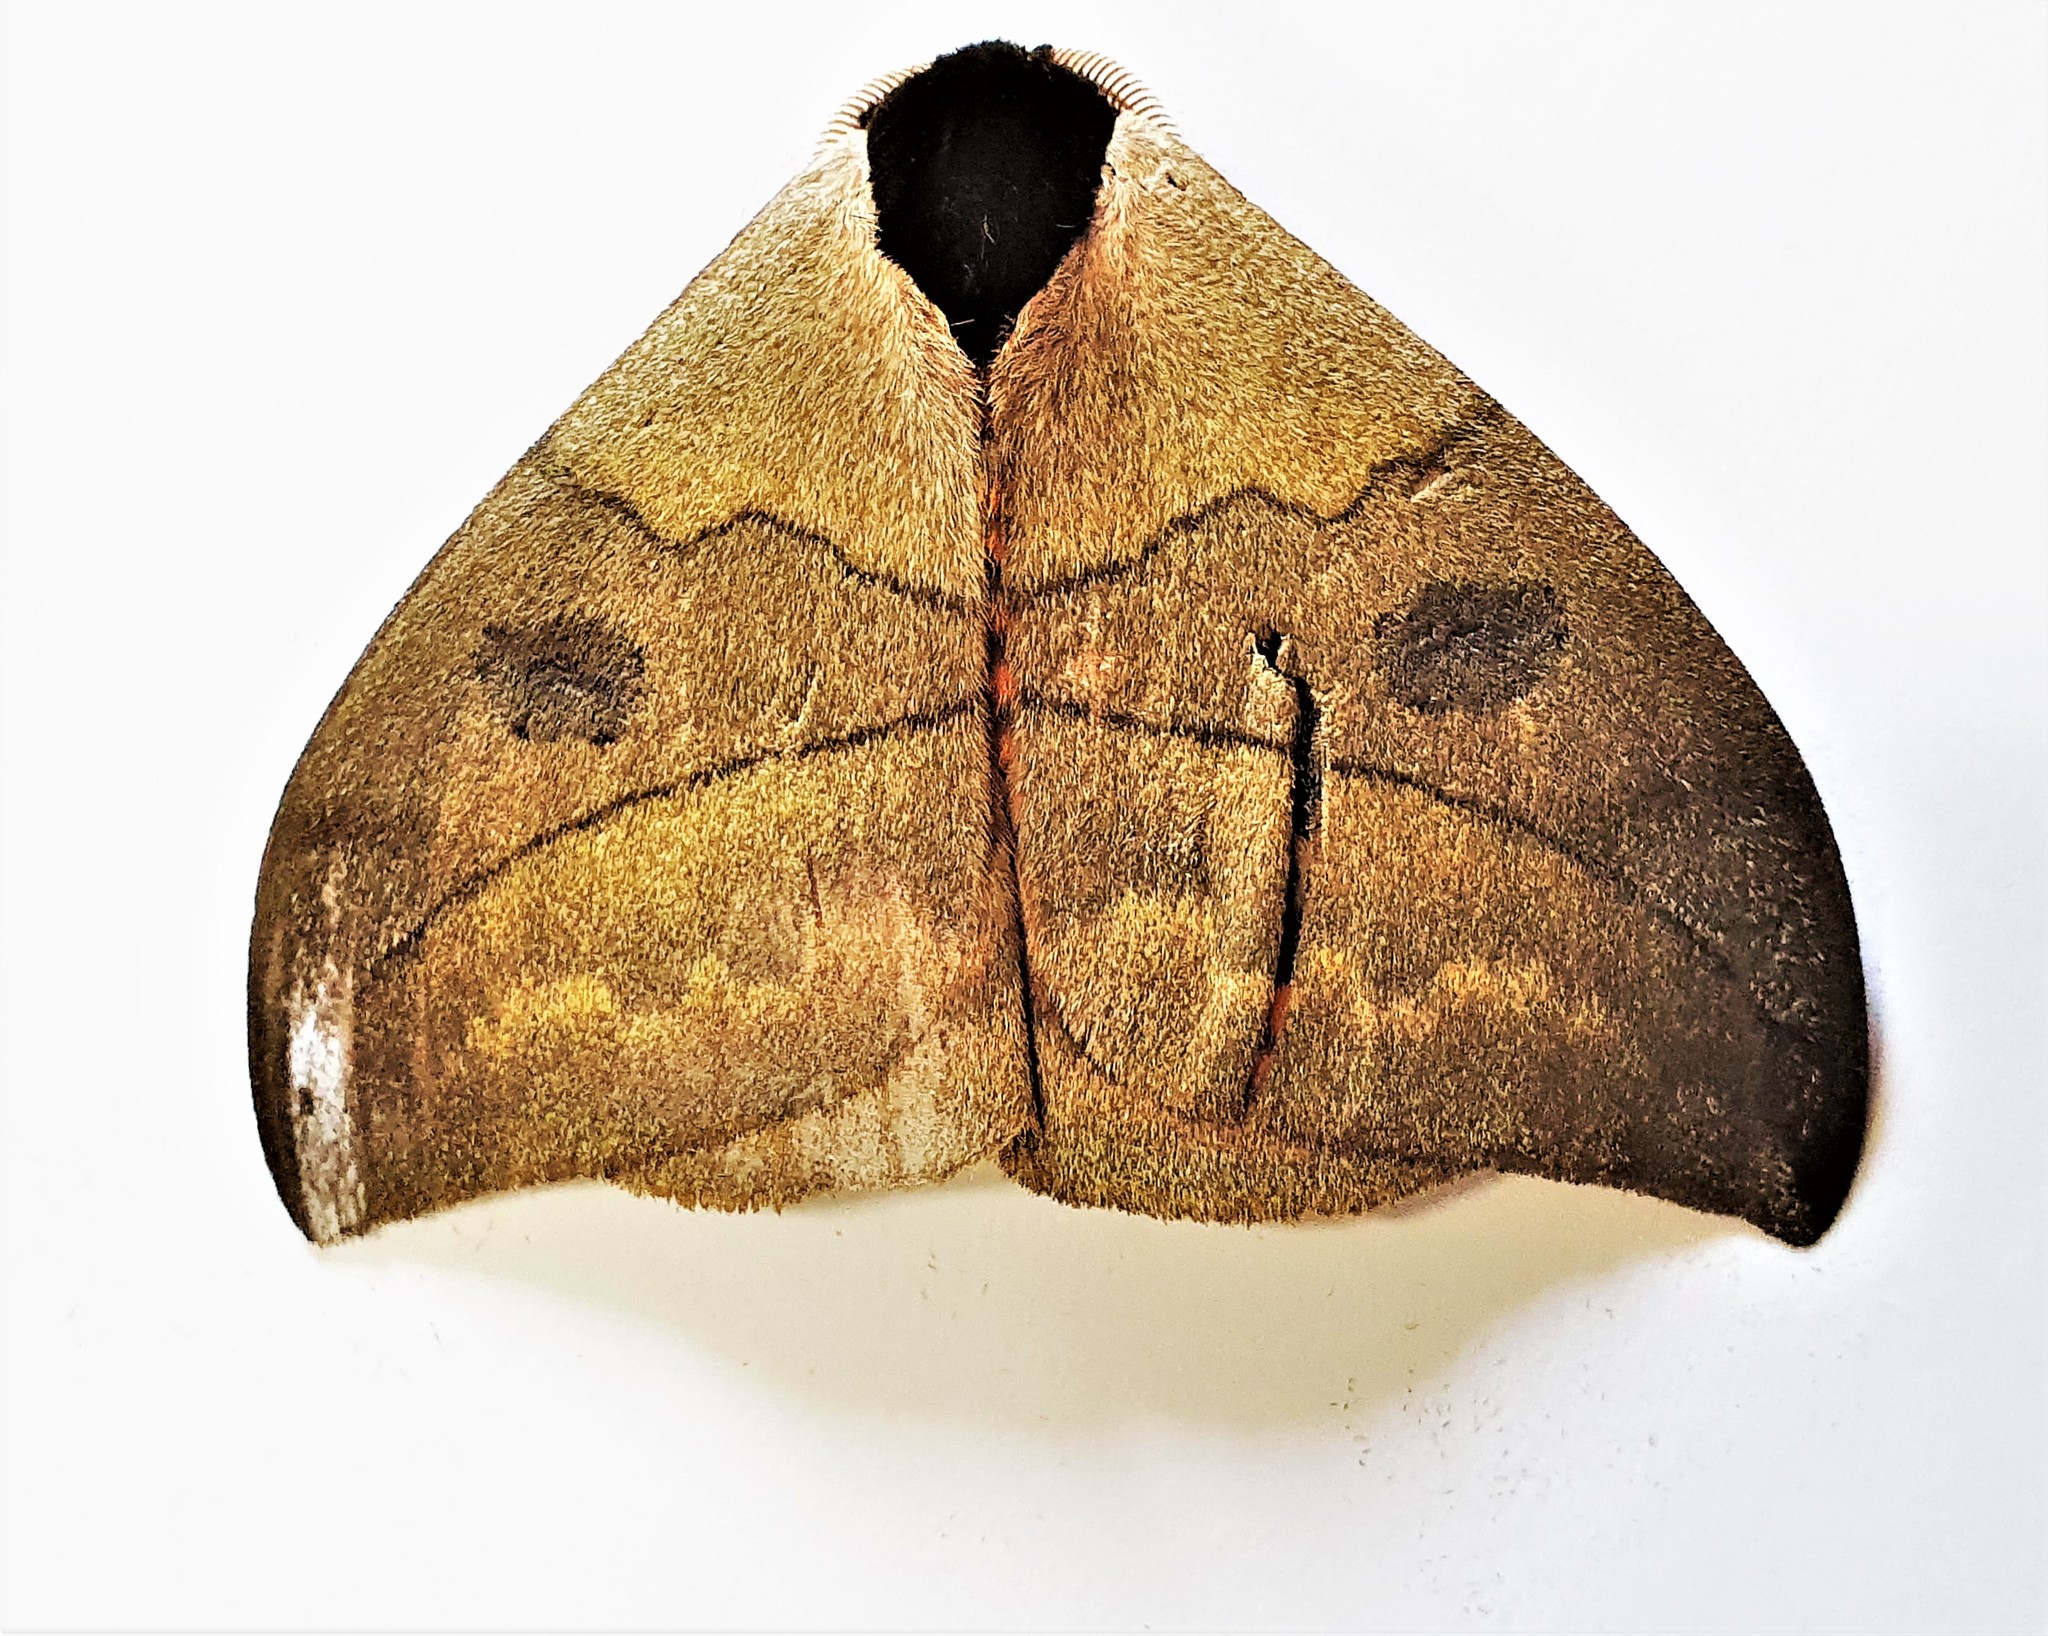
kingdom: Animalia
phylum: Arthropoda
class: Insecta
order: Lepidoptera
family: Saturniidae
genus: Automeris
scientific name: Automeris liberia
